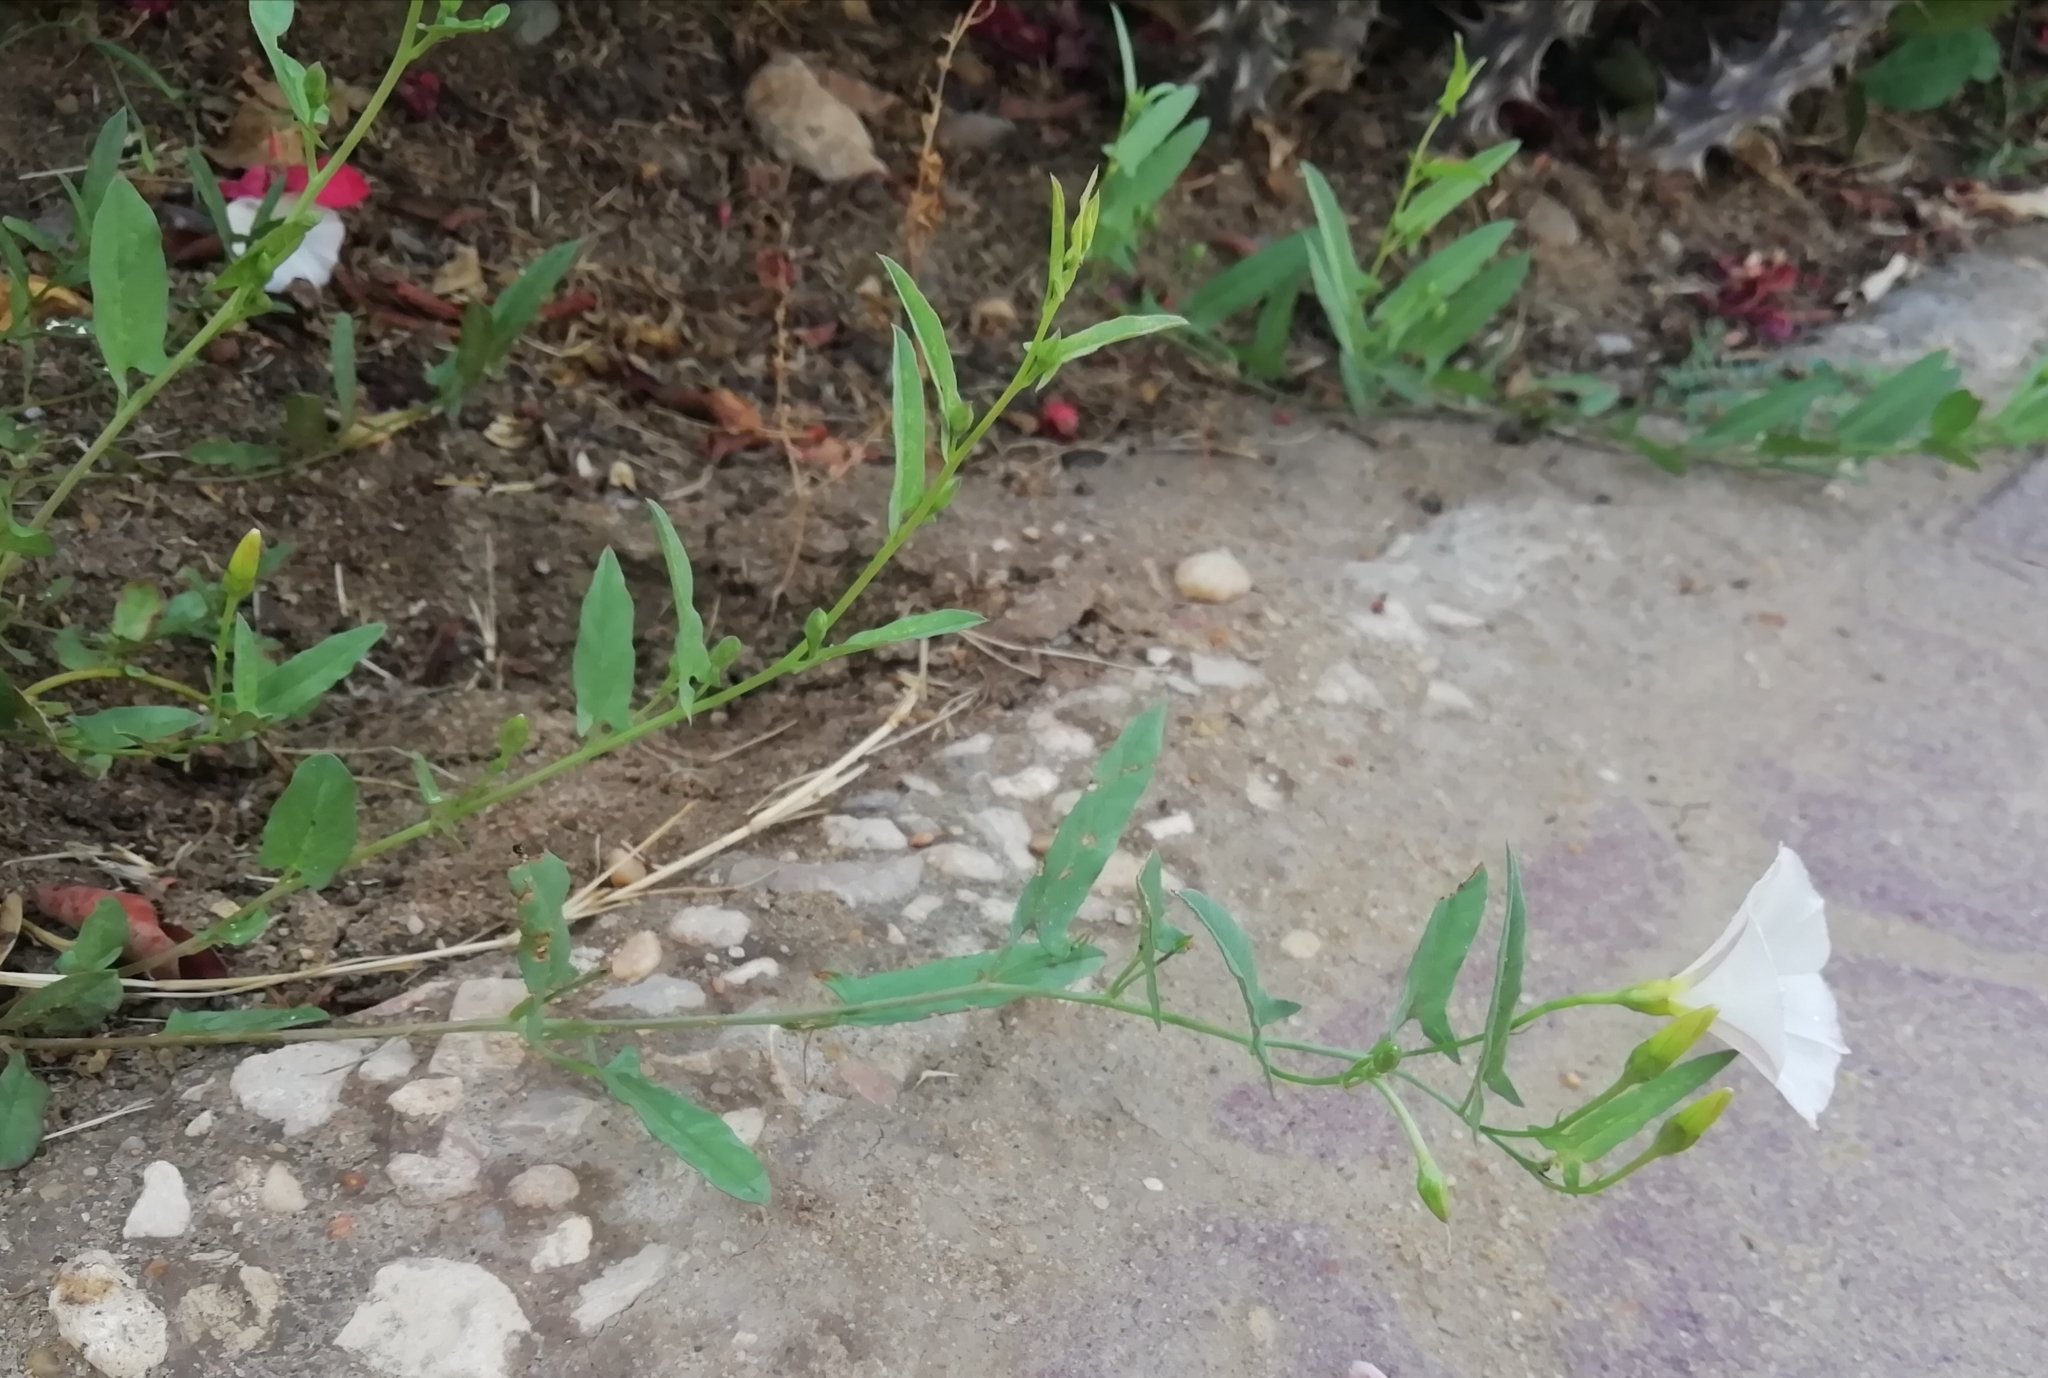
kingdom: Plantae
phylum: Tracheophyta
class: Magnoliopsida
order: Solanales
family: Convolvulaceae
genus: Convolvulus
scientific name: Convolvulus arvensis
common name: Field bindweed
